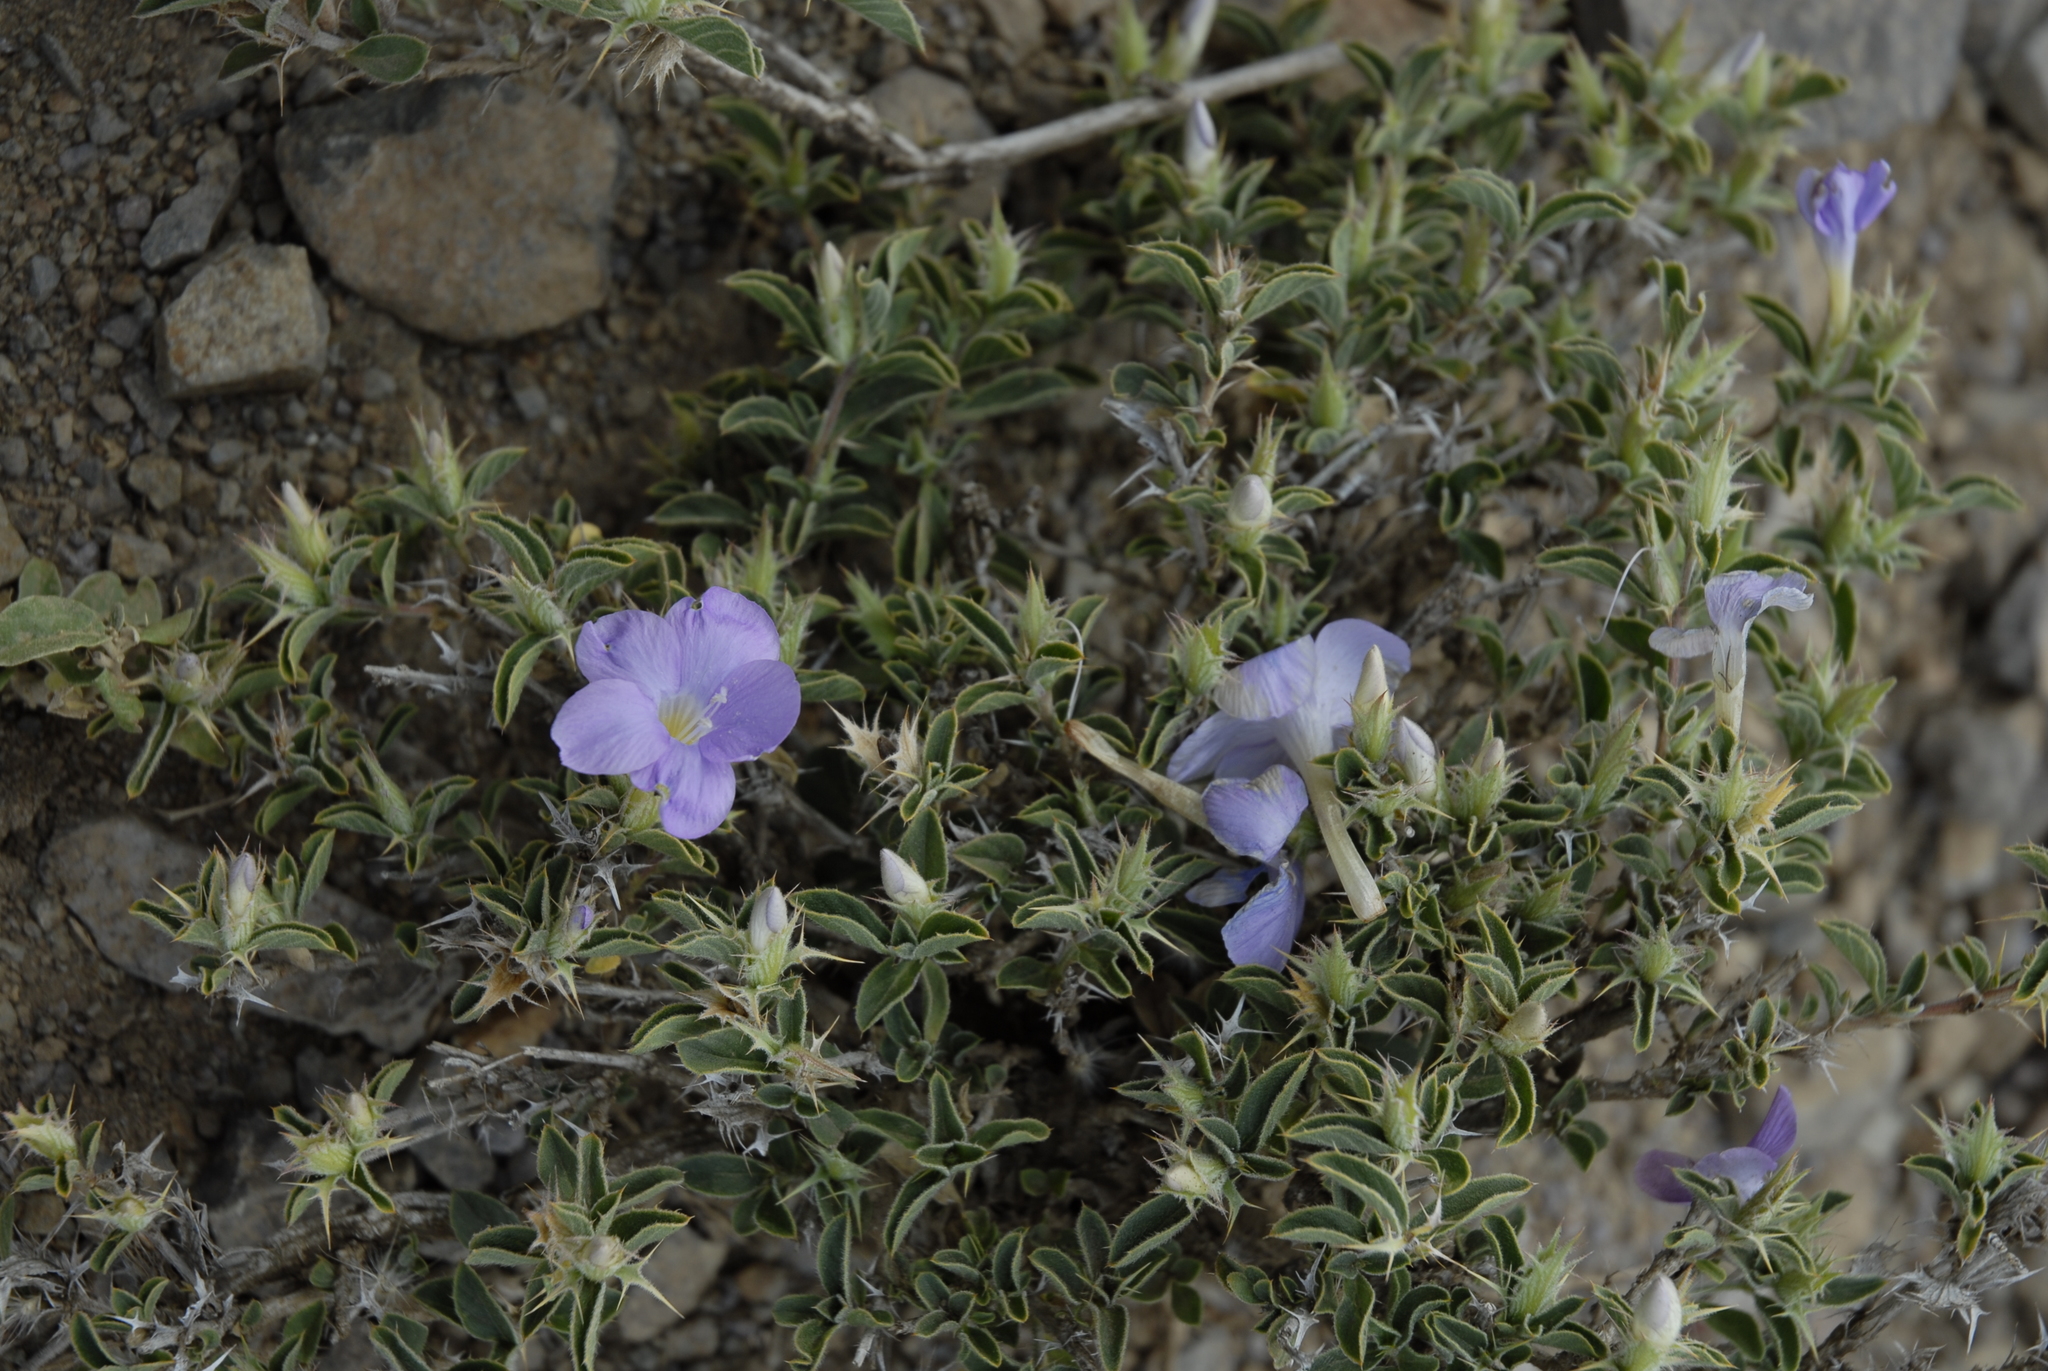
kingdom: Plantae
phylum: Tracheophyta
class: Magnoliopsida
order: Lamiales
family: Acanthaceae
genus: Barleria
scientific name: Barleria delamerei
